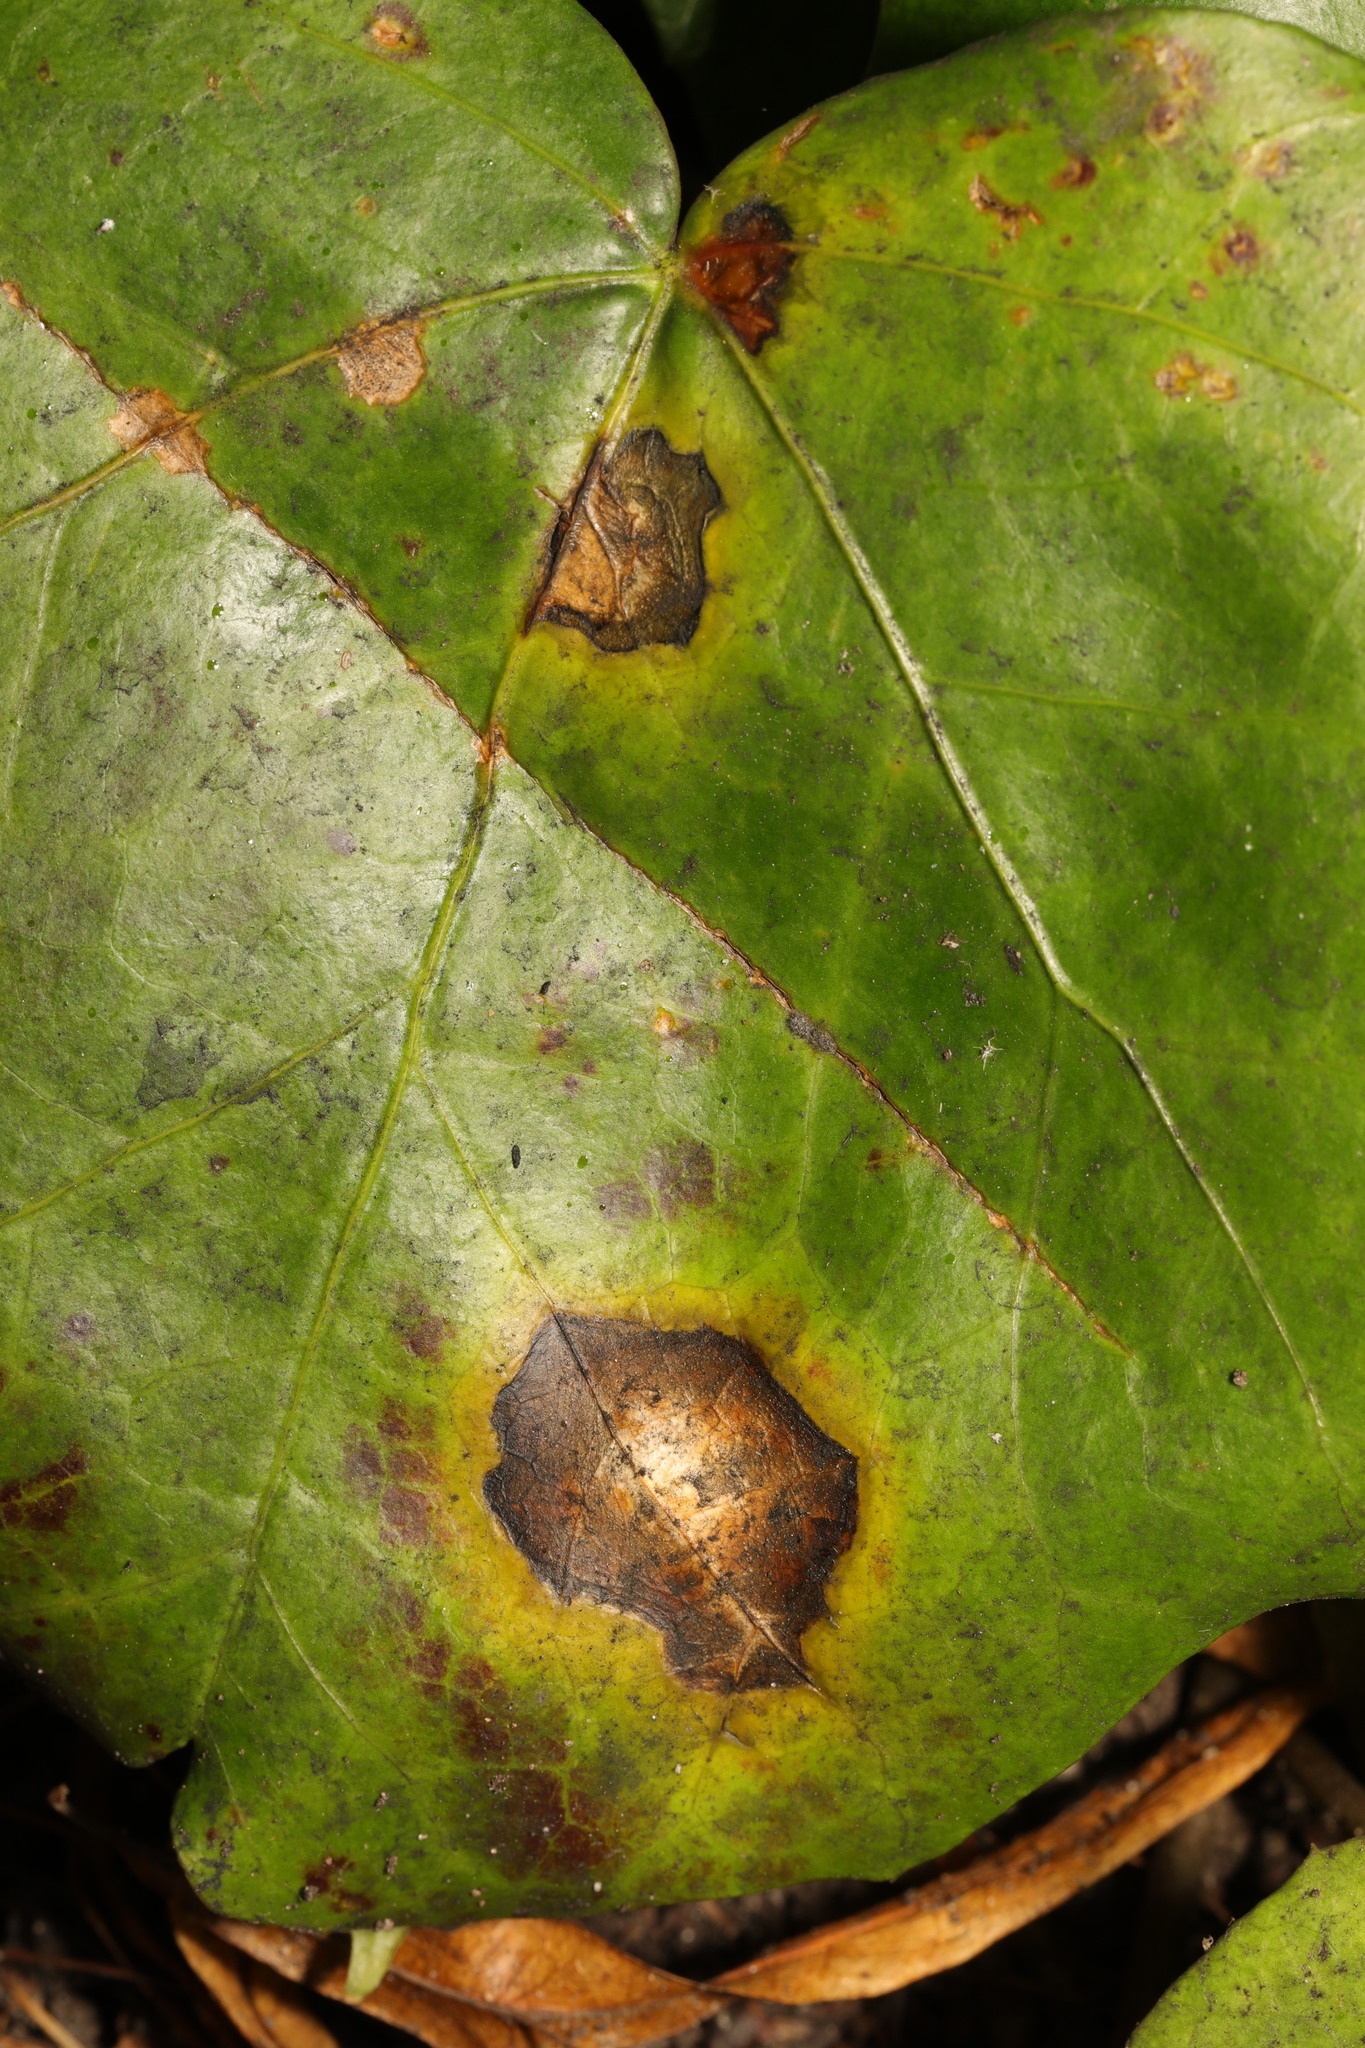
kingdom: Fungi
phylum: Ascomycota
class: Dothideomycetes
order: Pleosporales
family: Didymellaceae
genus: Boeremia
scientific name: Boeremia hedericola
